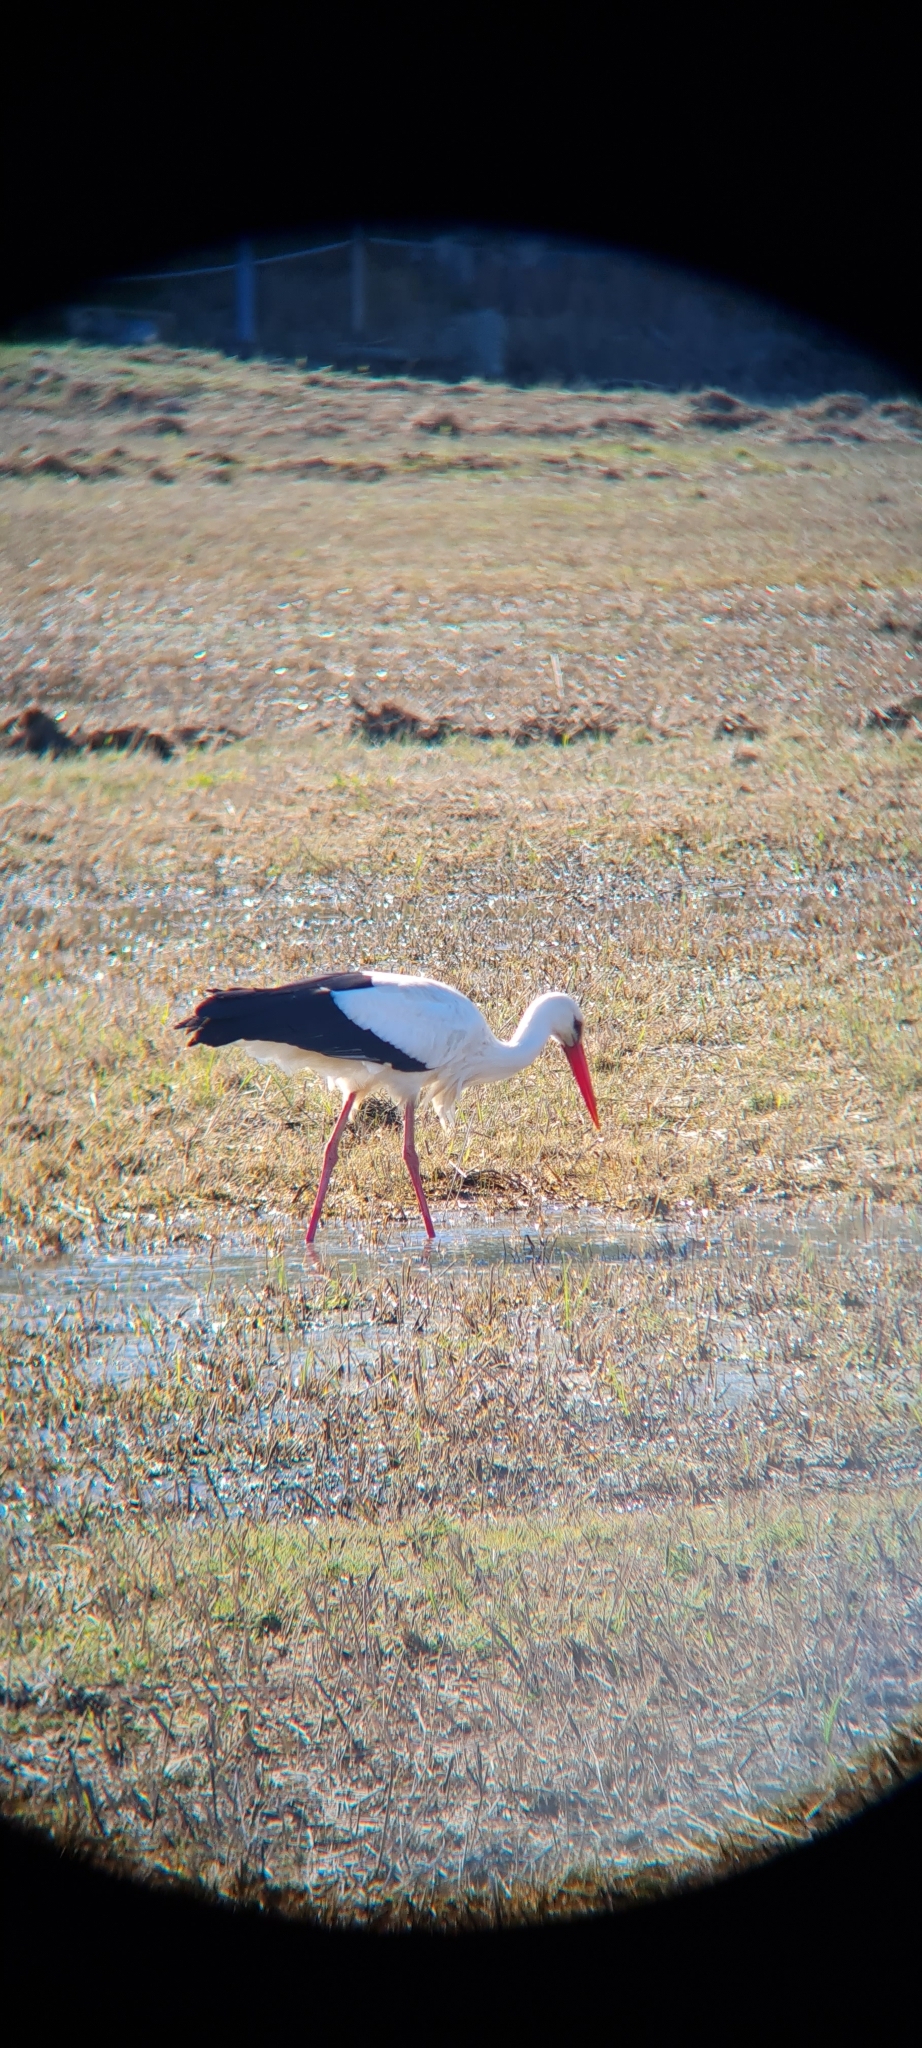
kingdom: Animalia
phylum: Chordata
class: Aves
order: Ciconiiformes
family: Ciconiidae
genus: Ciconia
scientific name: Ciconia ciconia
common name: White stork
